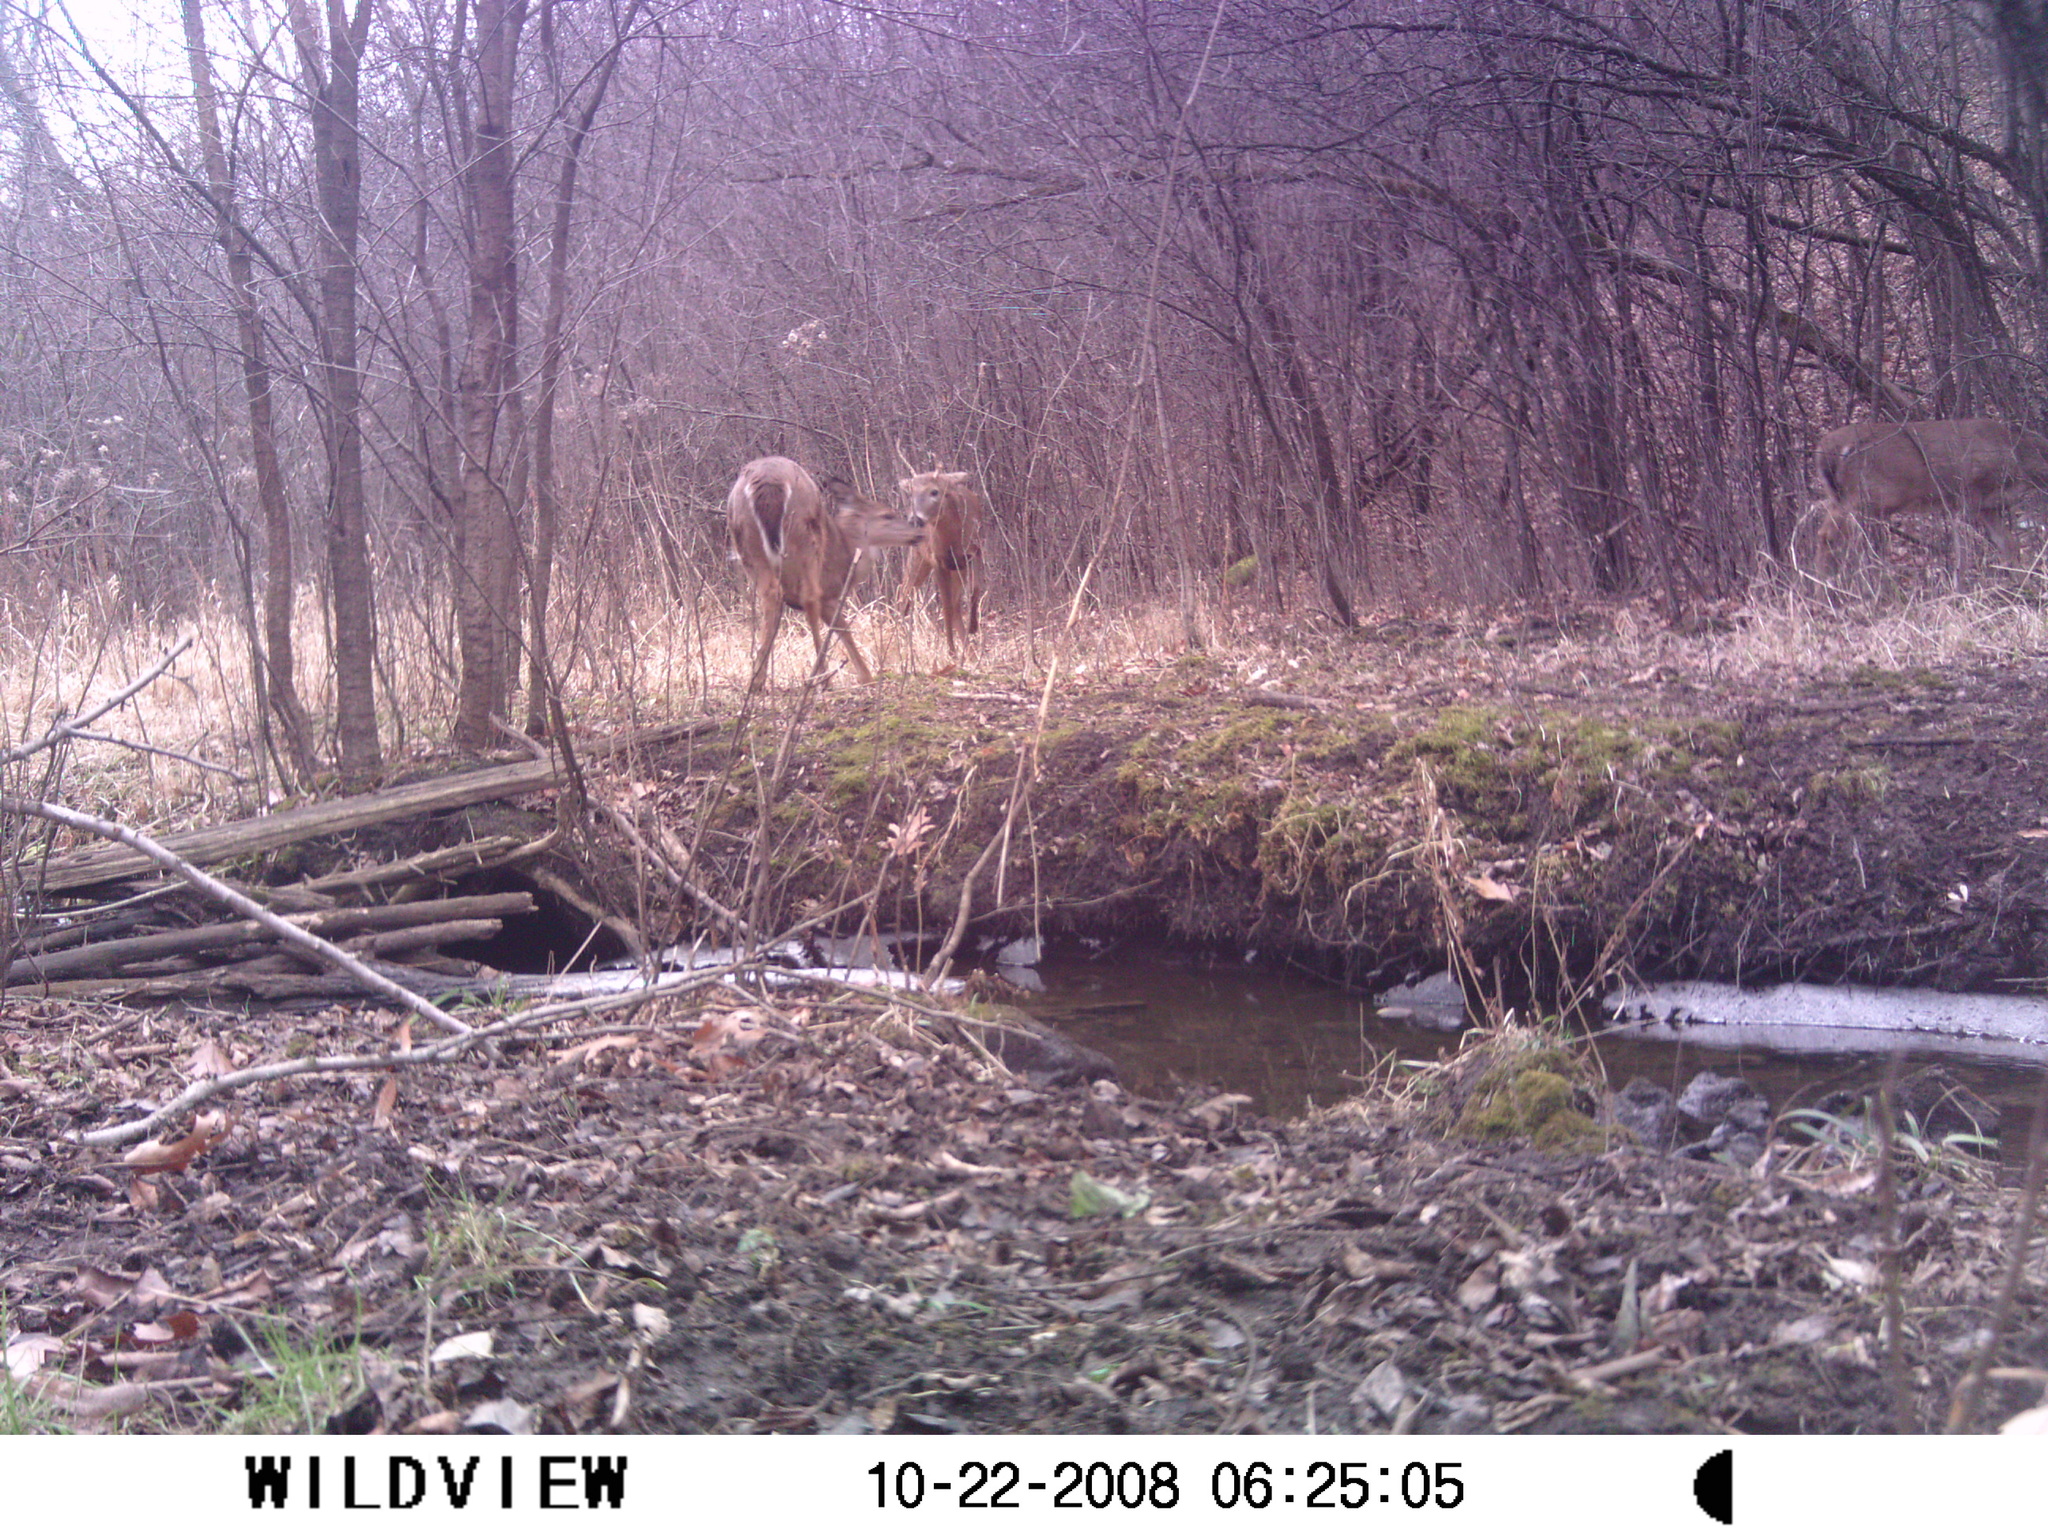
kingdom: Animalia
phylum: Chordata
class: Mammalia
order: Artiodactyla
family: Cervidae
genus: Odocoileus
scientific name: Odocoileus virginianus
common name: White-tailed deer
